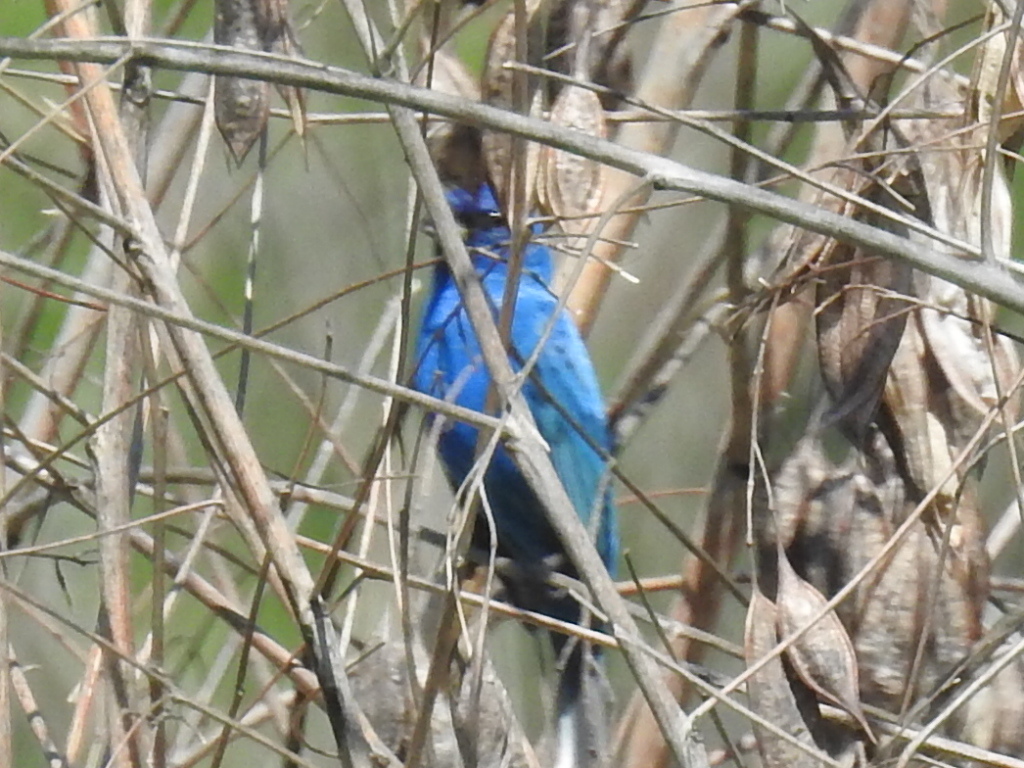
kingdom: Animalia
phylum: Chordata
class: Aves
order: Passeriformes
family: Cardinalidae
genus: Passerina
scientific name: Passerina cyanea
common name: Indigo bunting
